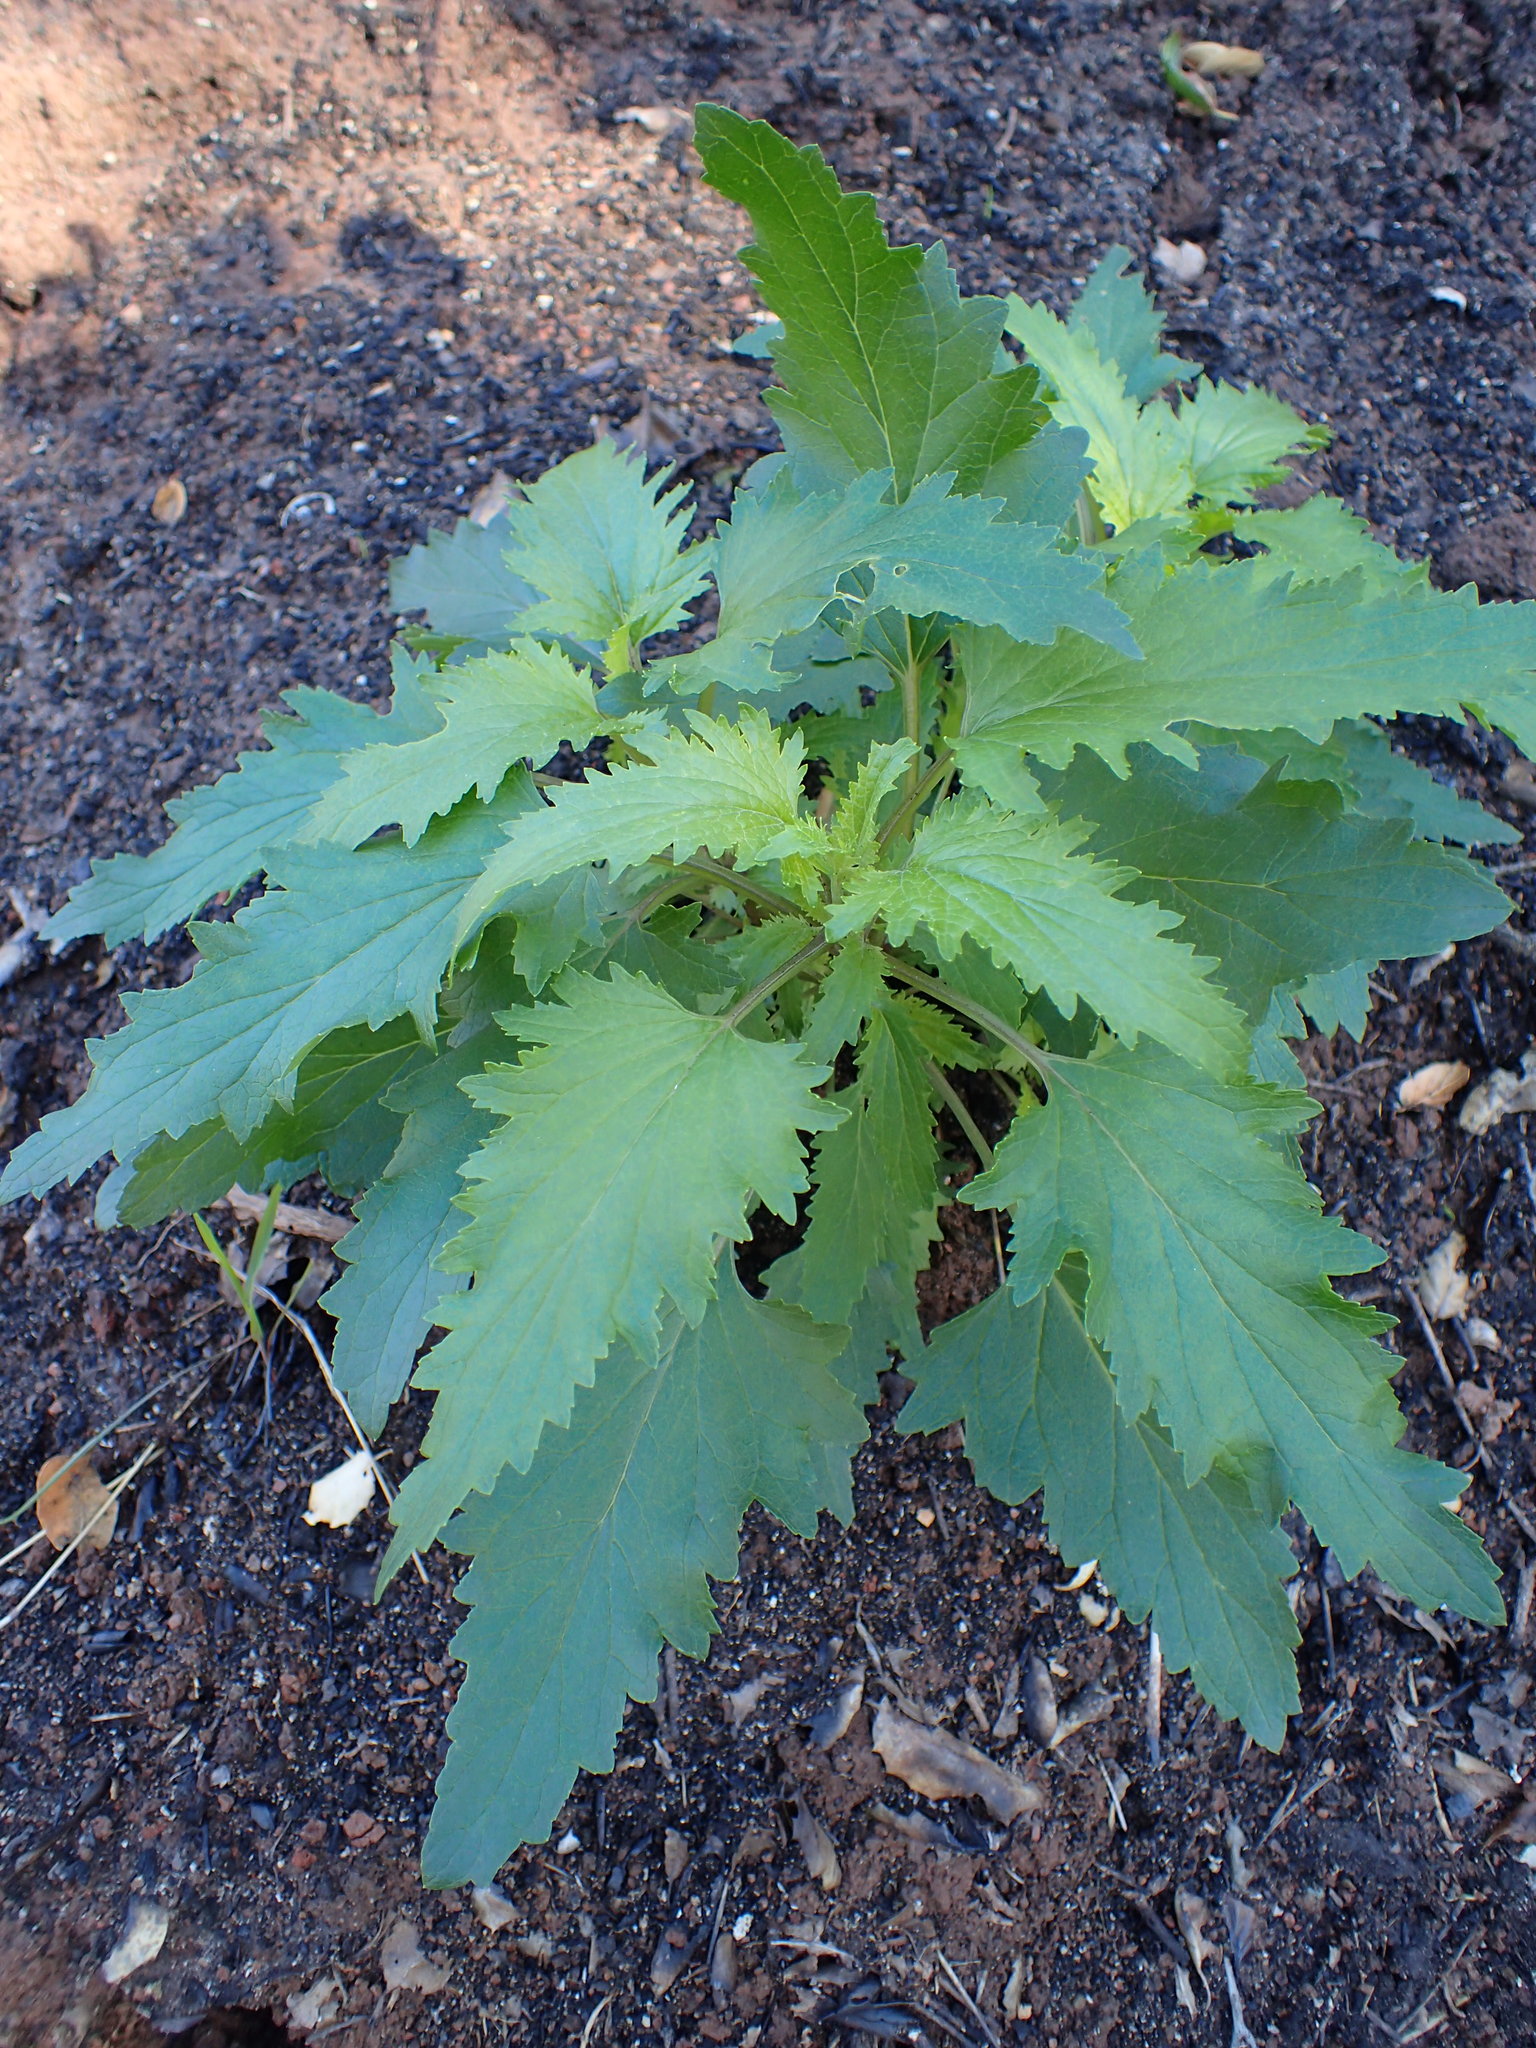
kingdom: Plantae
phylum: Tracheophyta
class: Magnoliopsida
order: Lamiales
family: Scrophulariaceae
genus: Scrophularia
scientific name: Scrophularia californica
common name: California figwort
